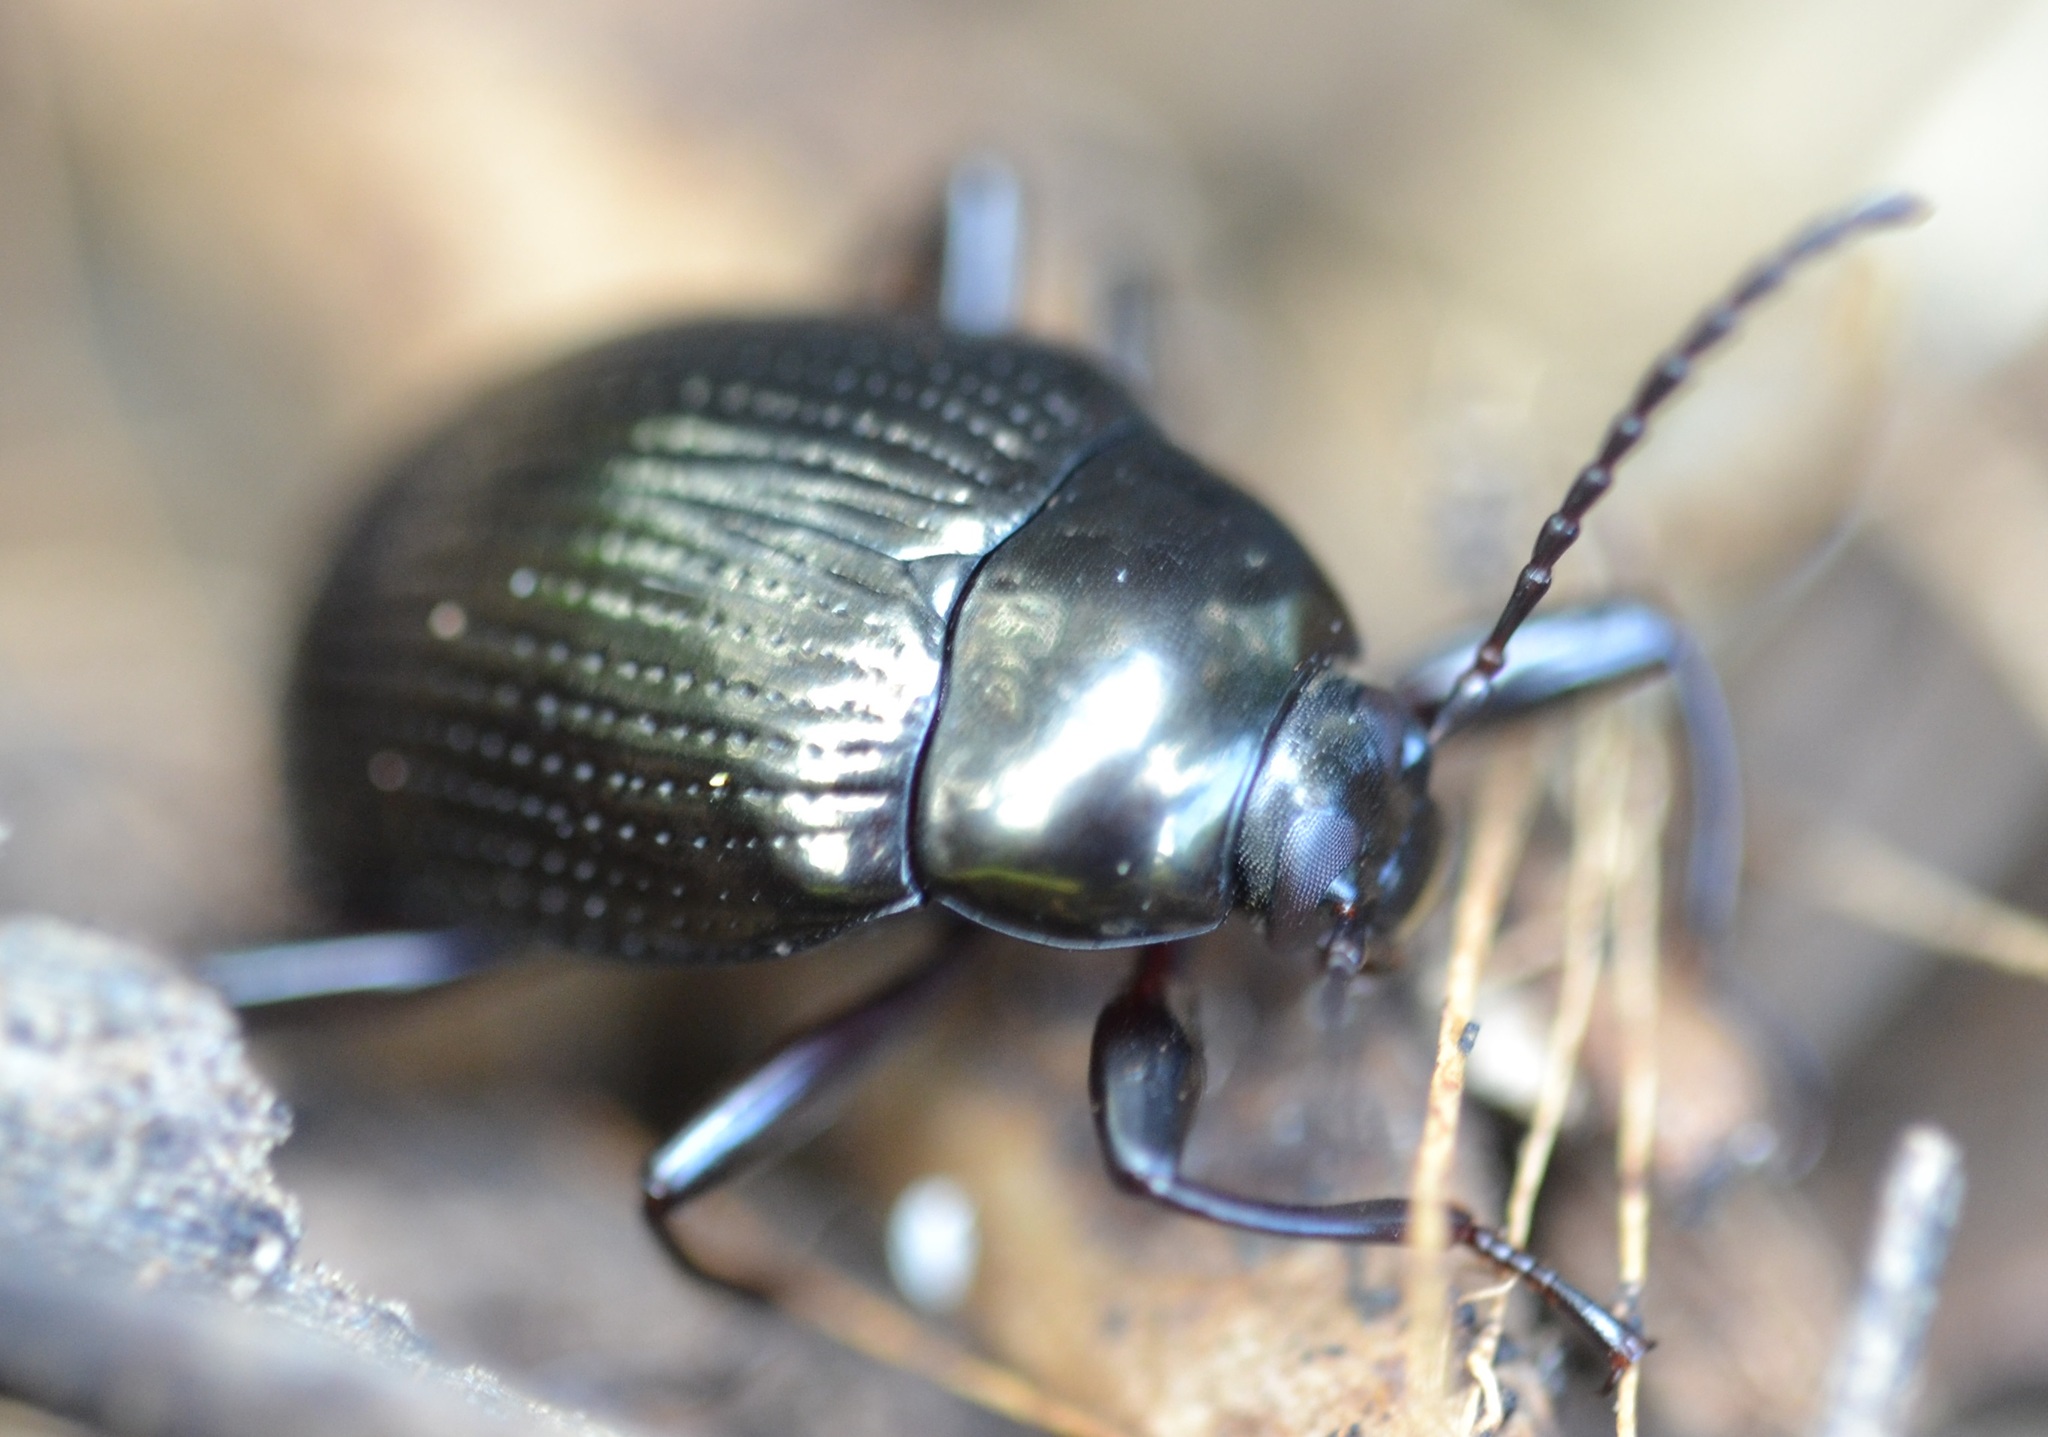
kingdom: Animalia
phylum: Arthropoda
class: Insecta
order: Coleoptera
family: Tenebrionidae
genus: Amarygmus
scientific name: Amarygmus morio
